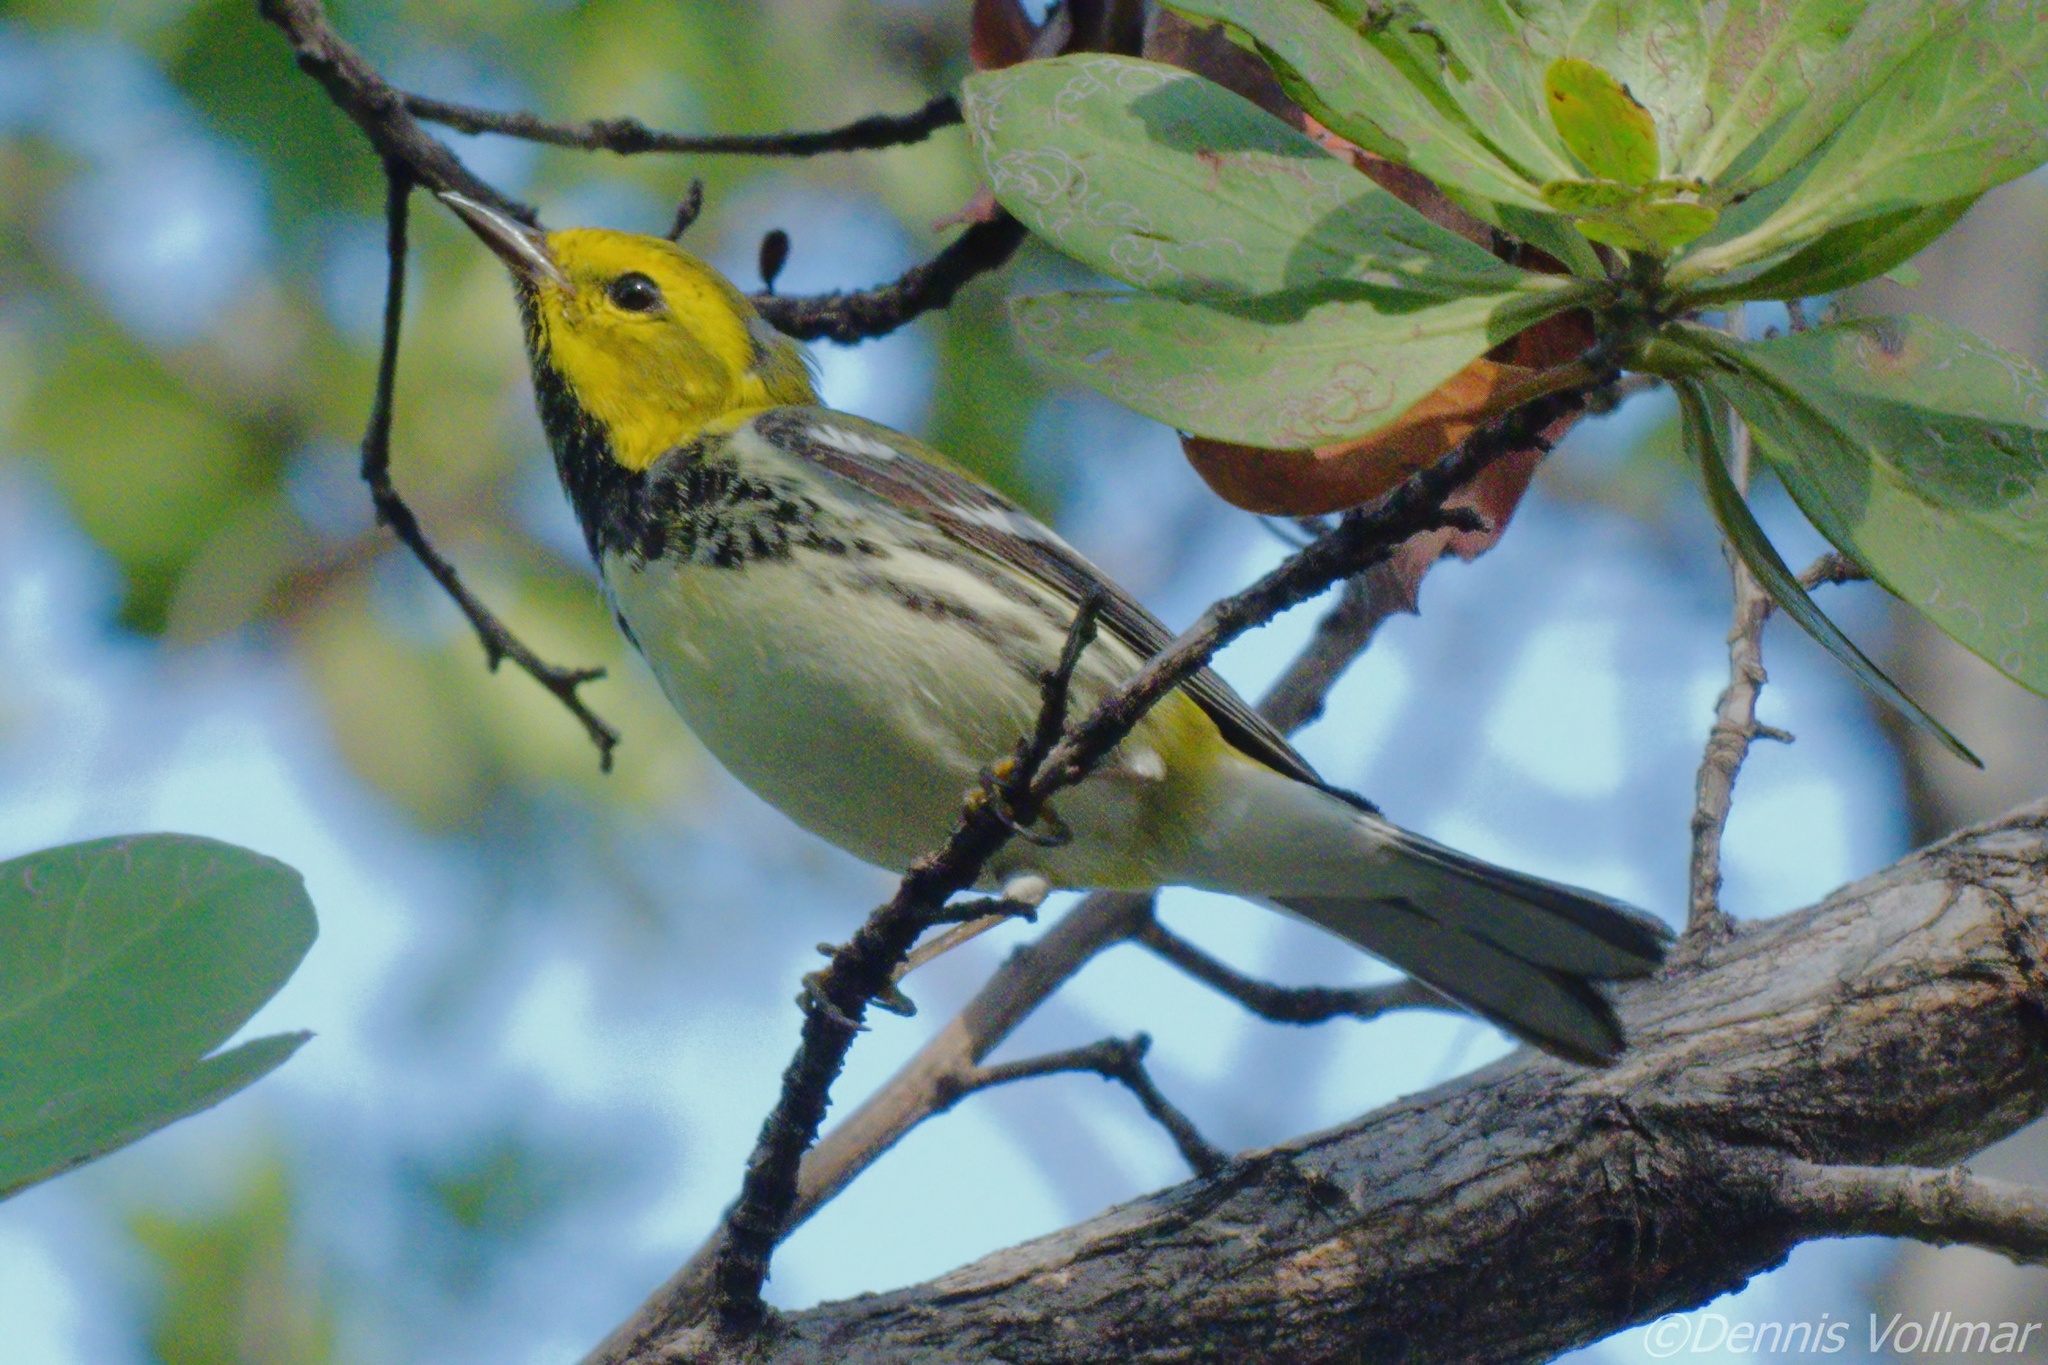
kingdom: Animalia
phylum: Chordata
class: Aves
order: Passeriformes
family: Parulidae
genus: Setophaga
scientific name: Setophaga virens
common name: Black-throated green warbler
